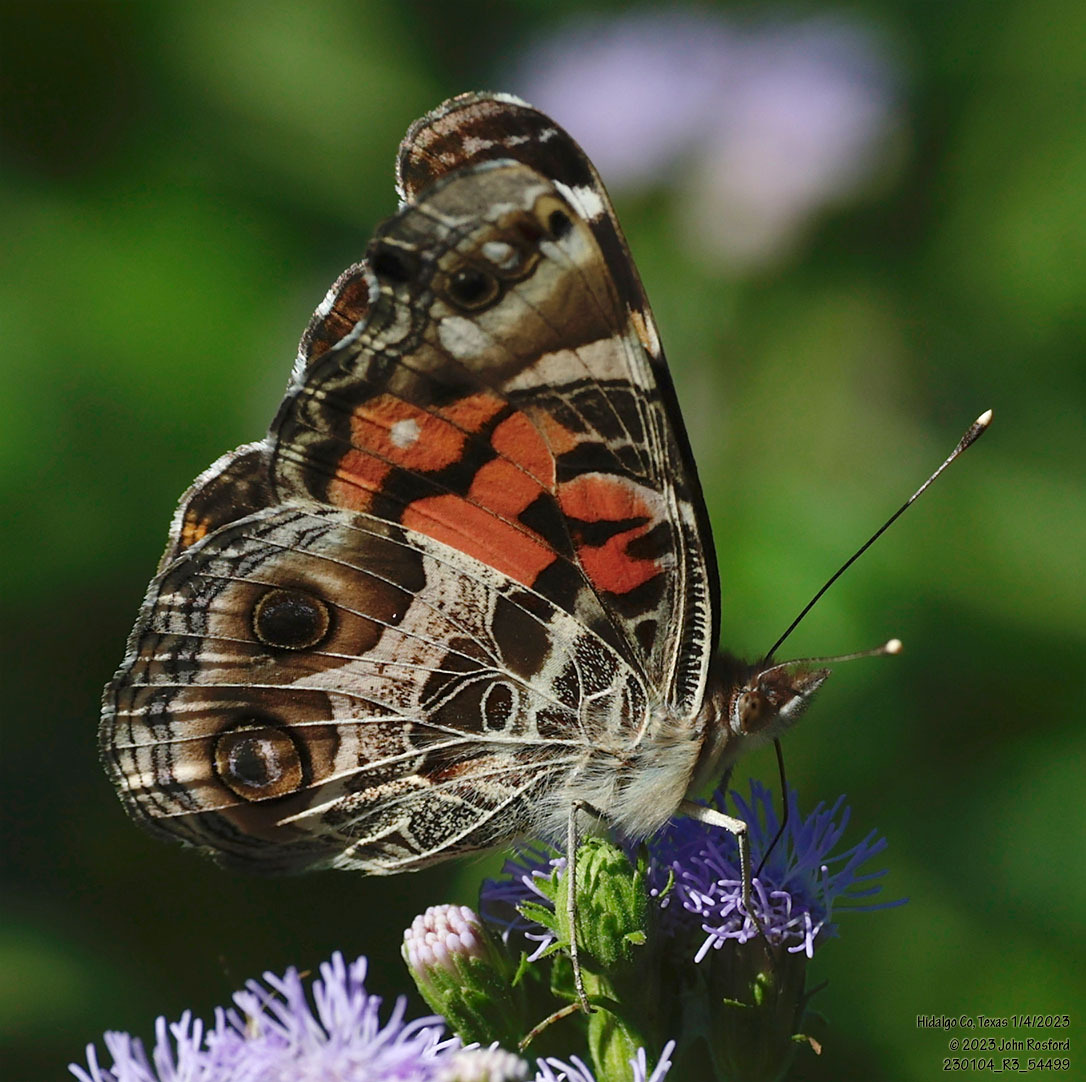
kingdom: Animalia
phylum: Arthropoda
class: Insecta
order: Lepidoptera
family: Nymphalidae
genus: Vanessa
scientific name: Vanessa virginiensis
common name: American lady
